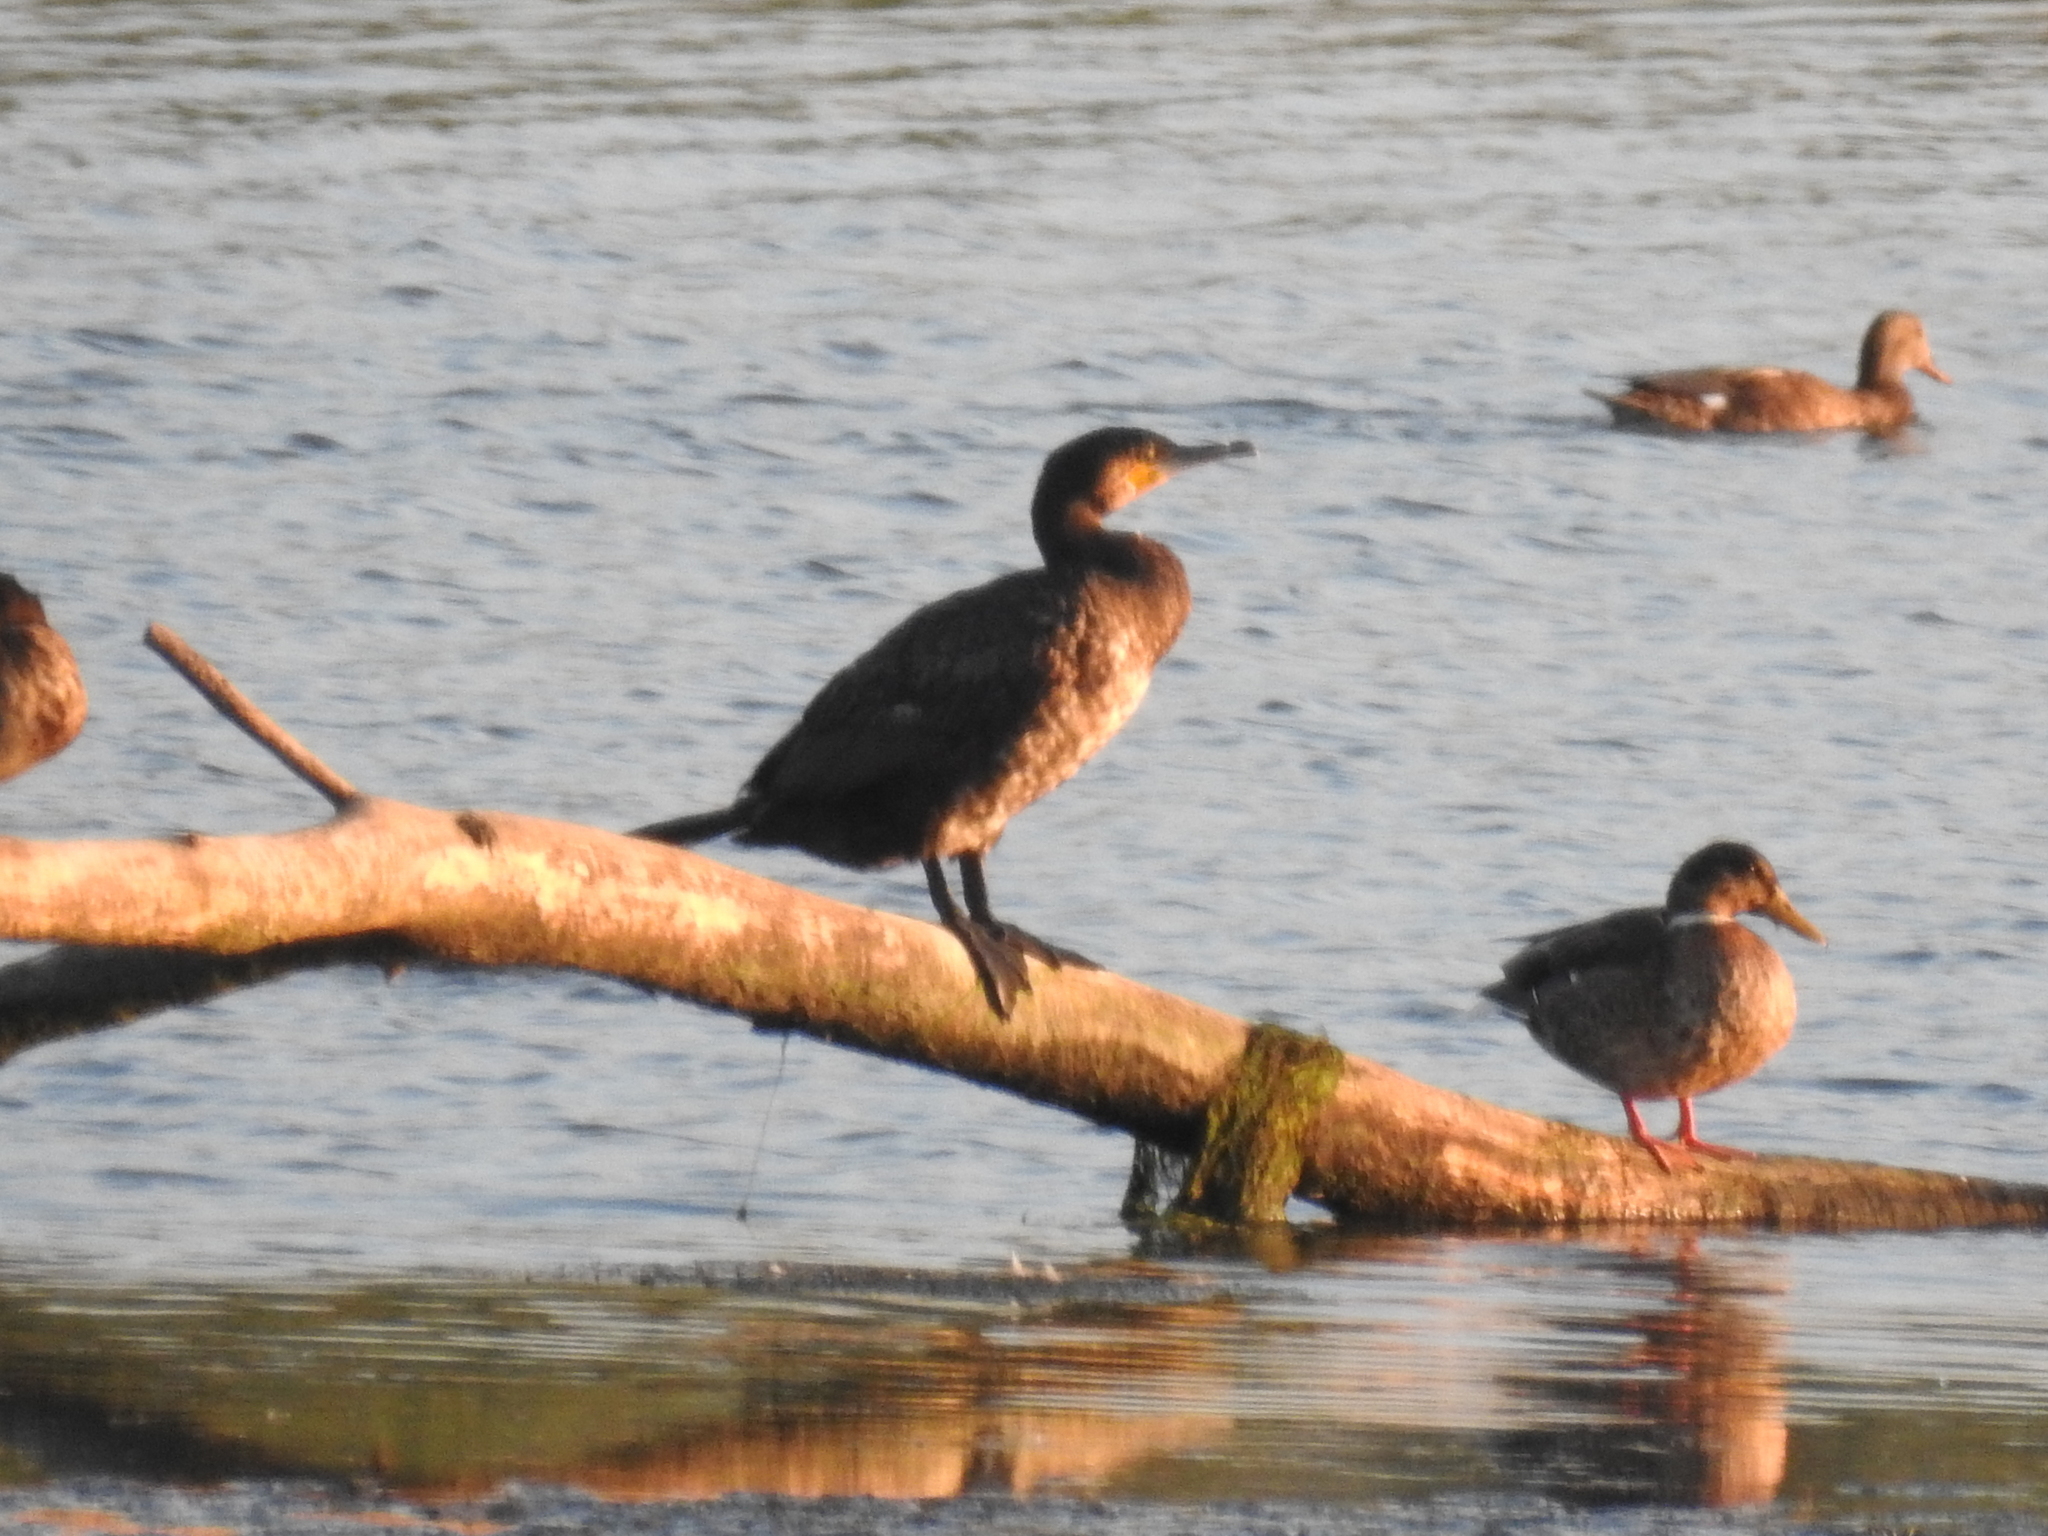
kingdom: Animalia
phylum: Chordata
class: Aves
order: Suliformes
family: Phalacrocoracidae
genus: Phalacrocorax
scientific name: Phalacrocorax carbo
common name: Great cormorant
